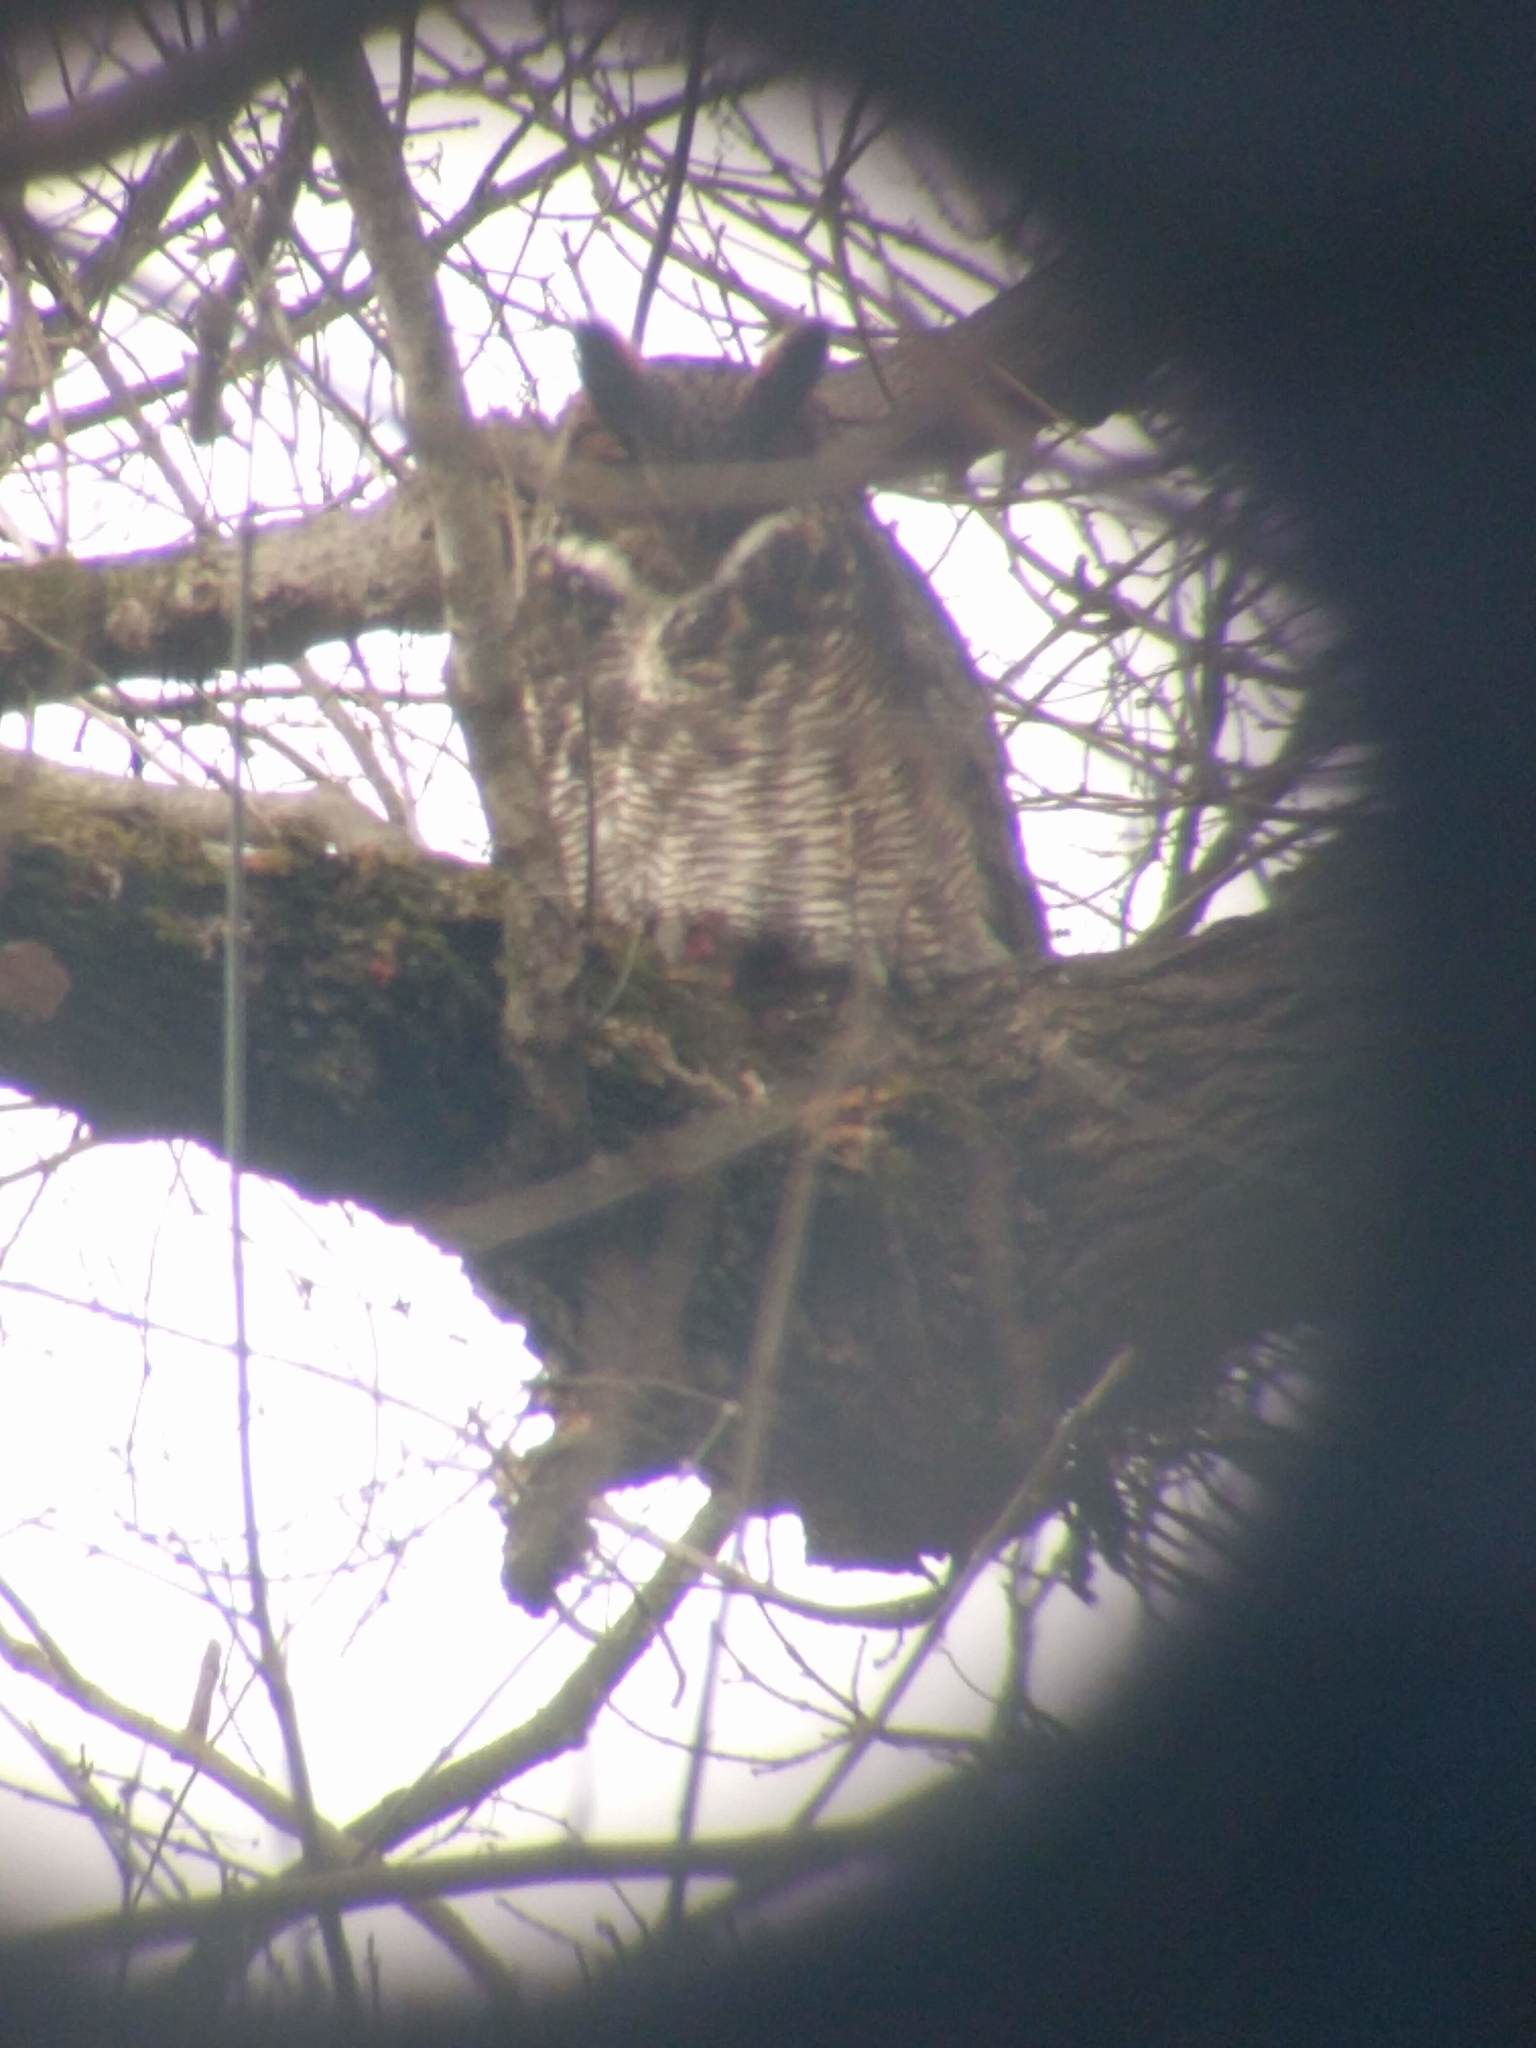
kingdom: Animalia
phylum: Chordata
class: Aves
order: Strigiformes
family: Strigidae
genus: Bubo
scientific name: Bubo virginianus
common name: Great horned owl
